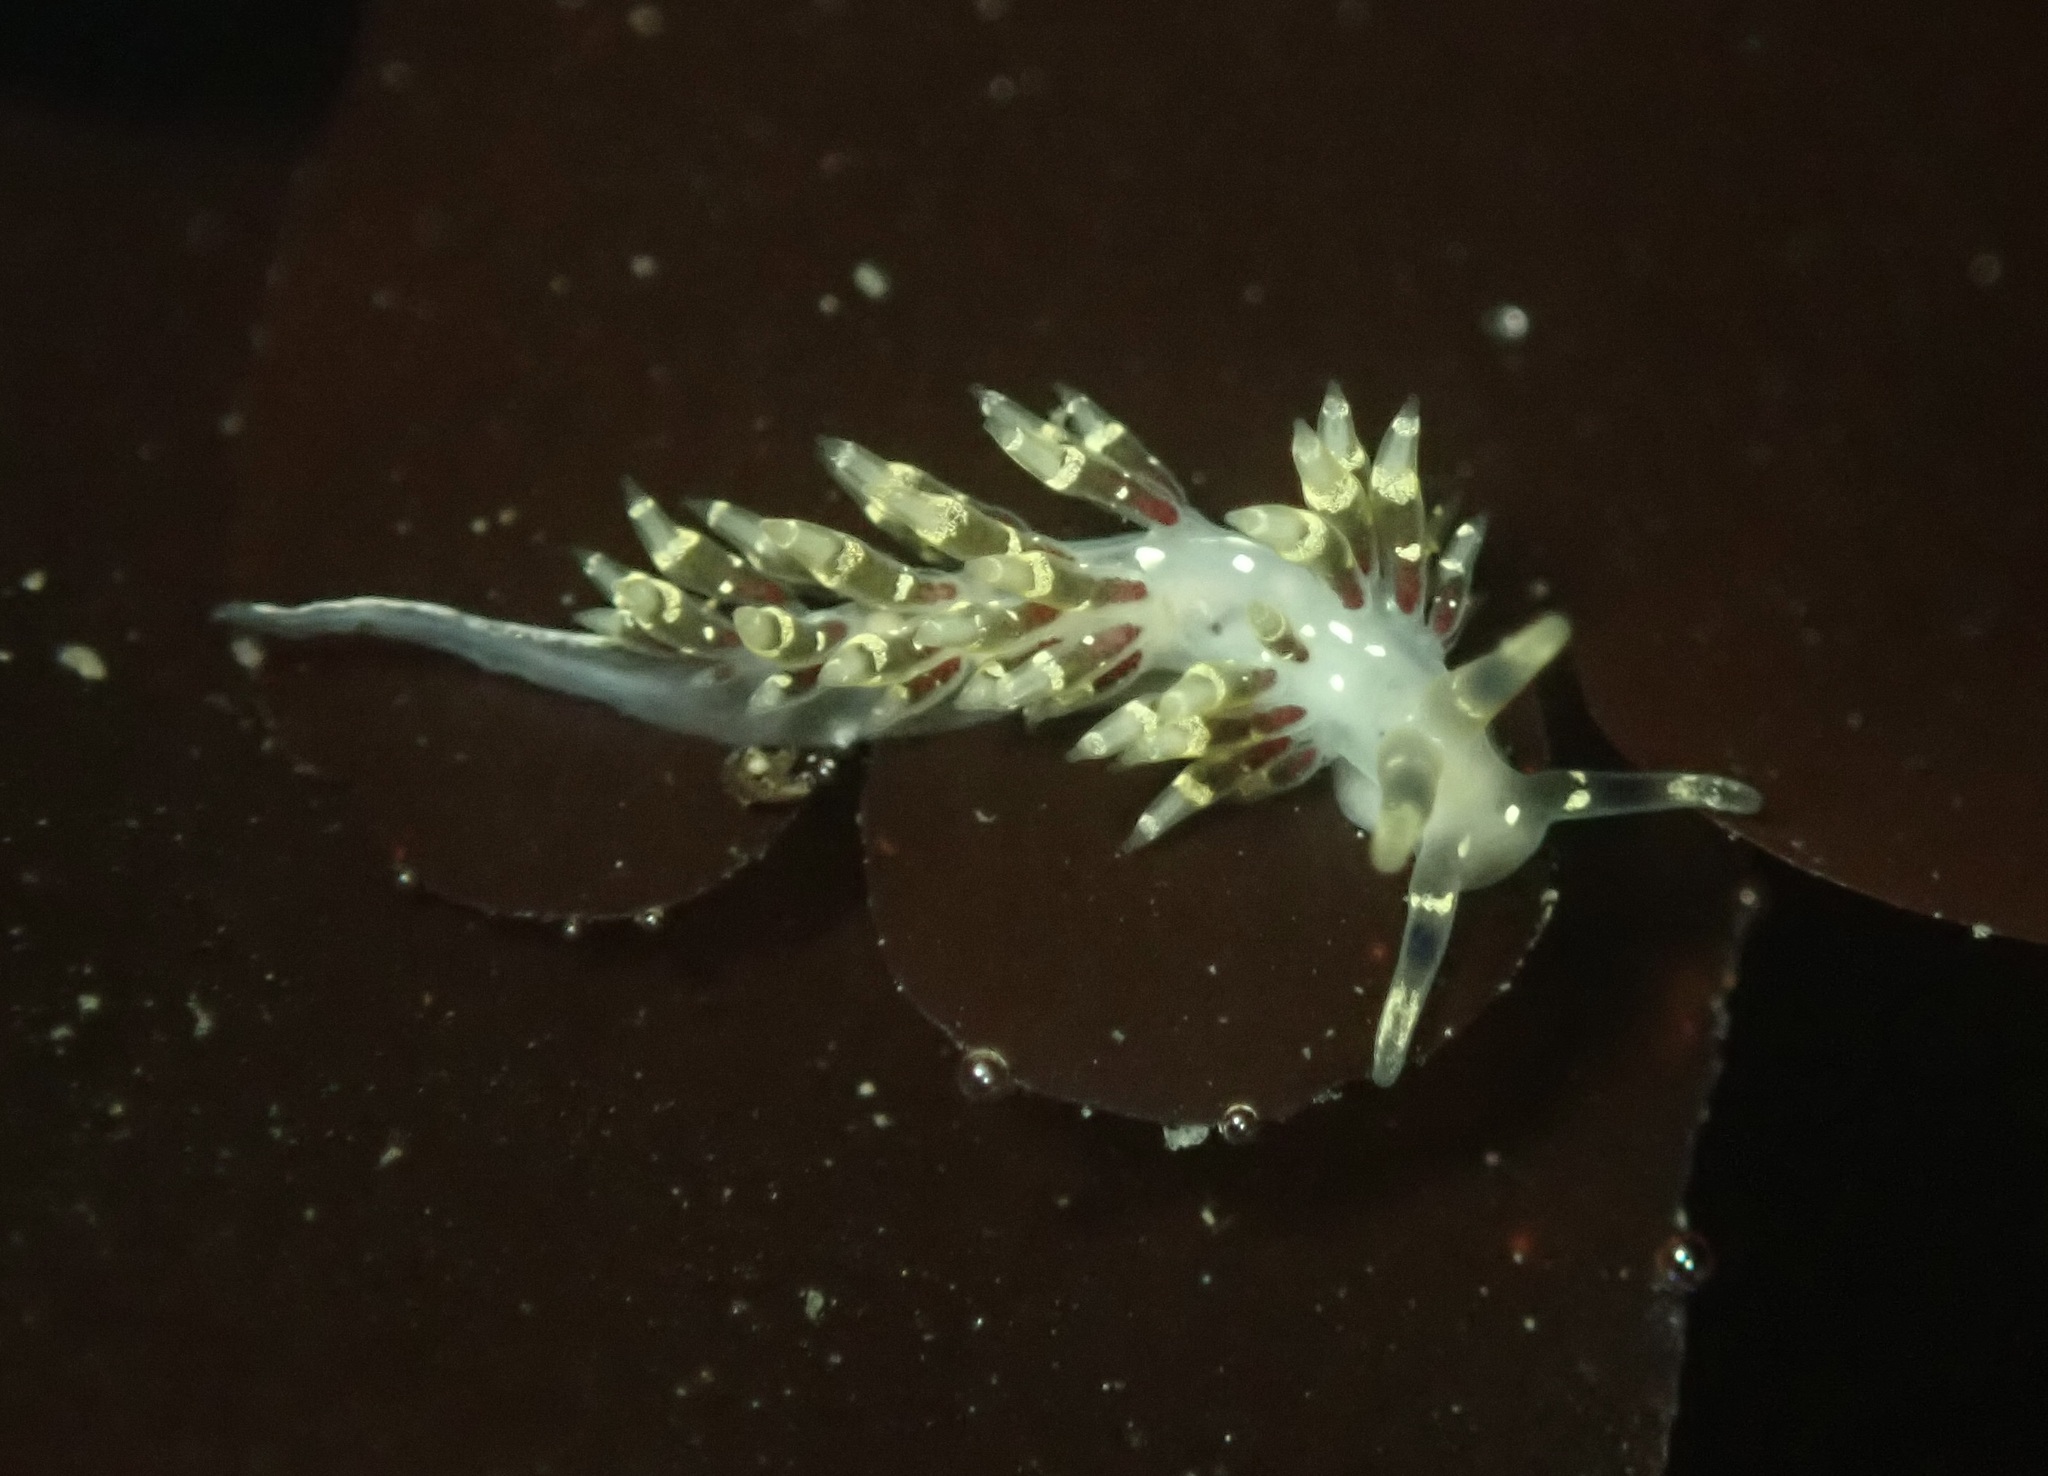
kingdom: Animalia
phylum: Mollusca
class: Gastropoda
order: Nudibranchia
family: Abronicidae
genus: Abronica
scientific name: Abronica abronia
